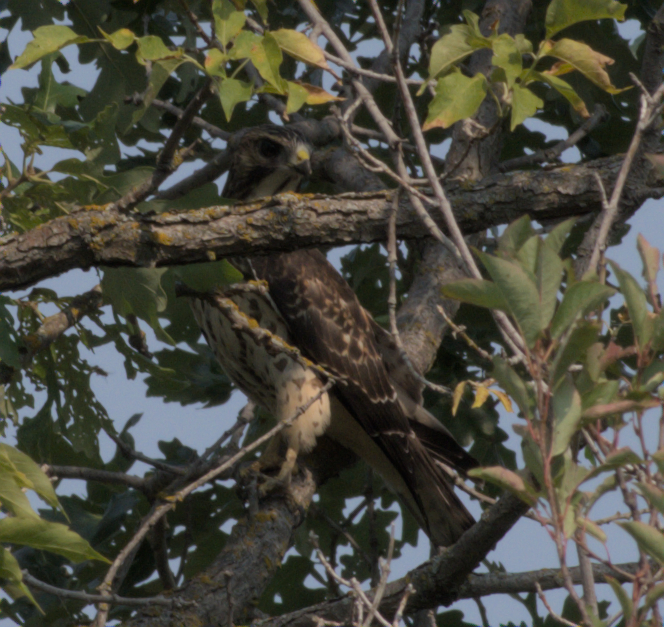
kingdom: Animalia
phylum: Chordata
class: Aves
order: Accipitriformes
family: Accipitridae
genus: Buteo
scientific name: Buteo platypterus
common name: Broad-winged hawk
